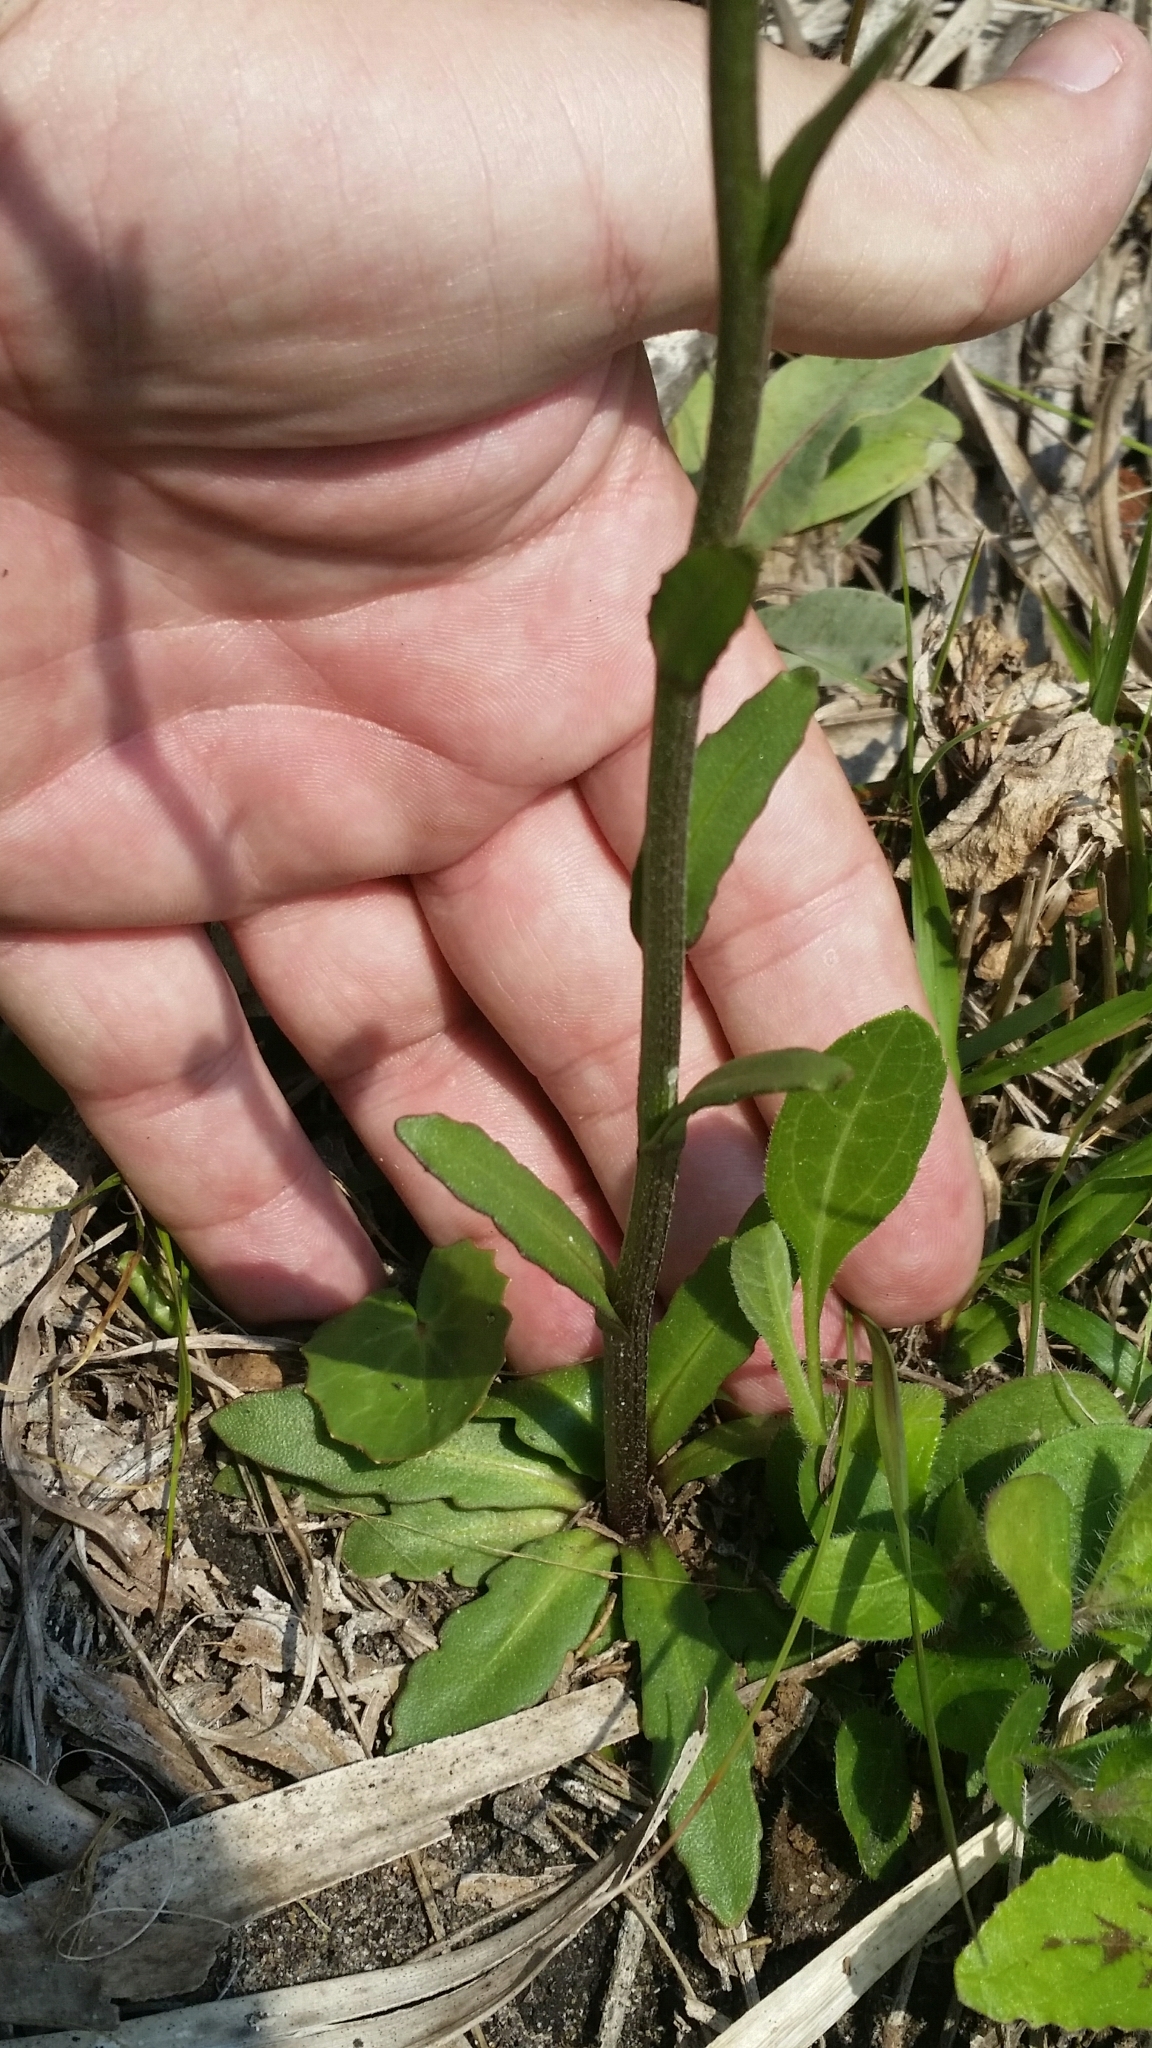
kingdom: Plantae
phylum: Tracheophyta
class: Magnoliopsida
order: Asterales
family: Asteraceae
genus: Helenium
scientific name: Helenium pinnatifidum
